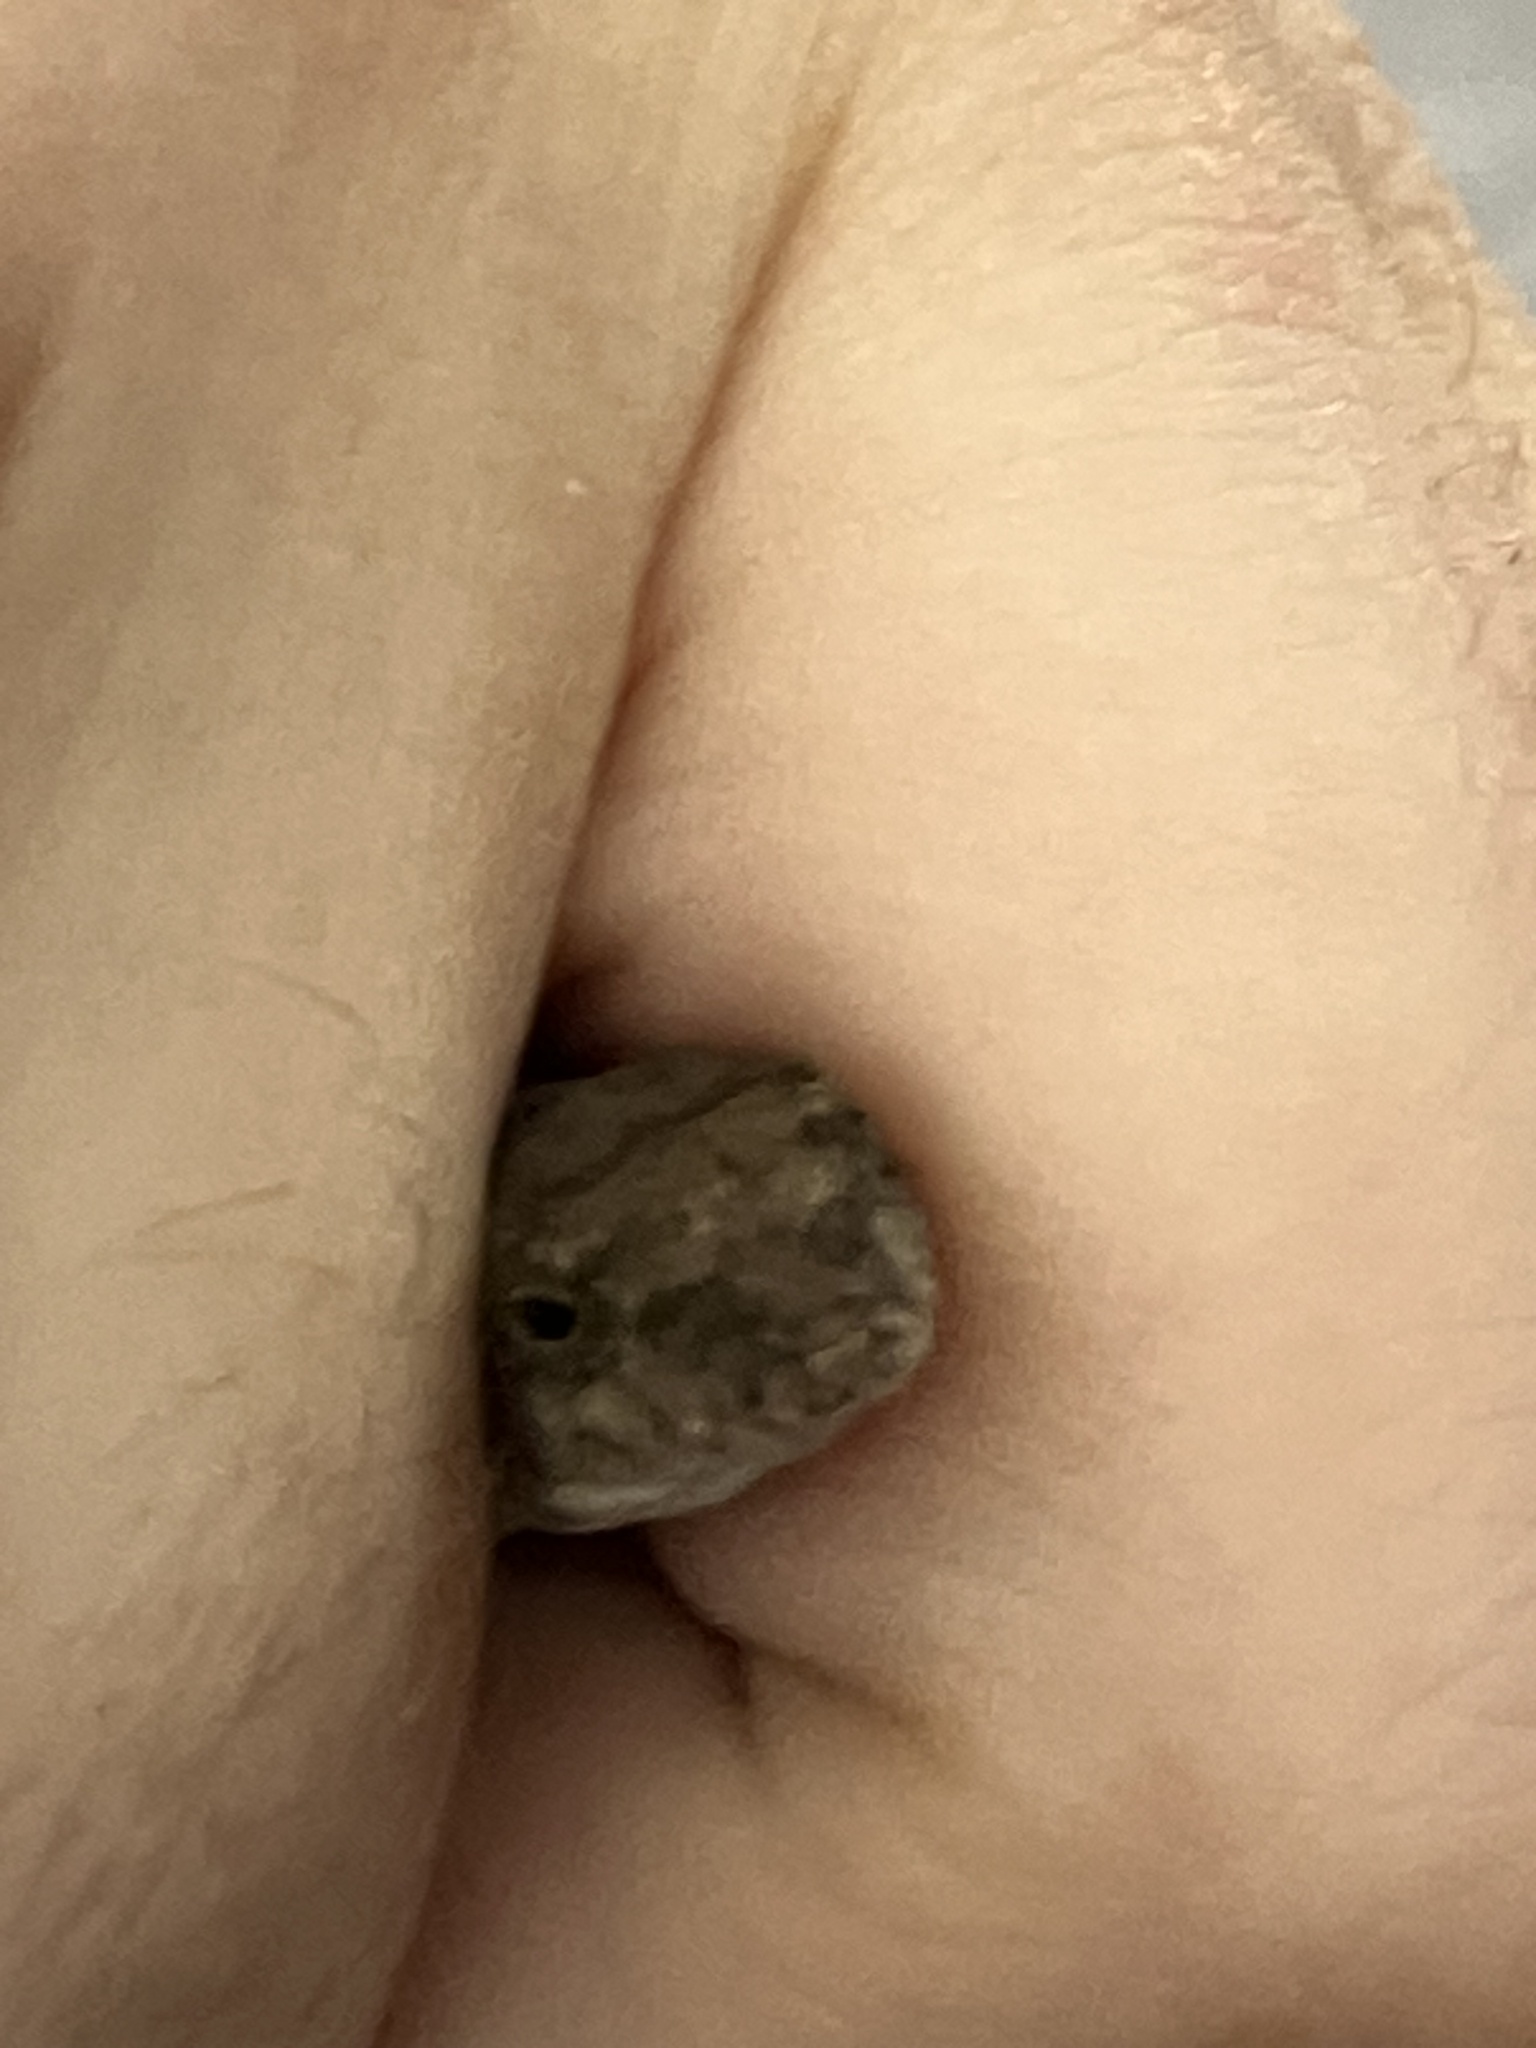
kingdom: Animalia
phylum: Chordata
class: Squamata
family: Dactyloidae
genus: Anolis
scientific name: Anolis sagrei
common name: Brown anole
